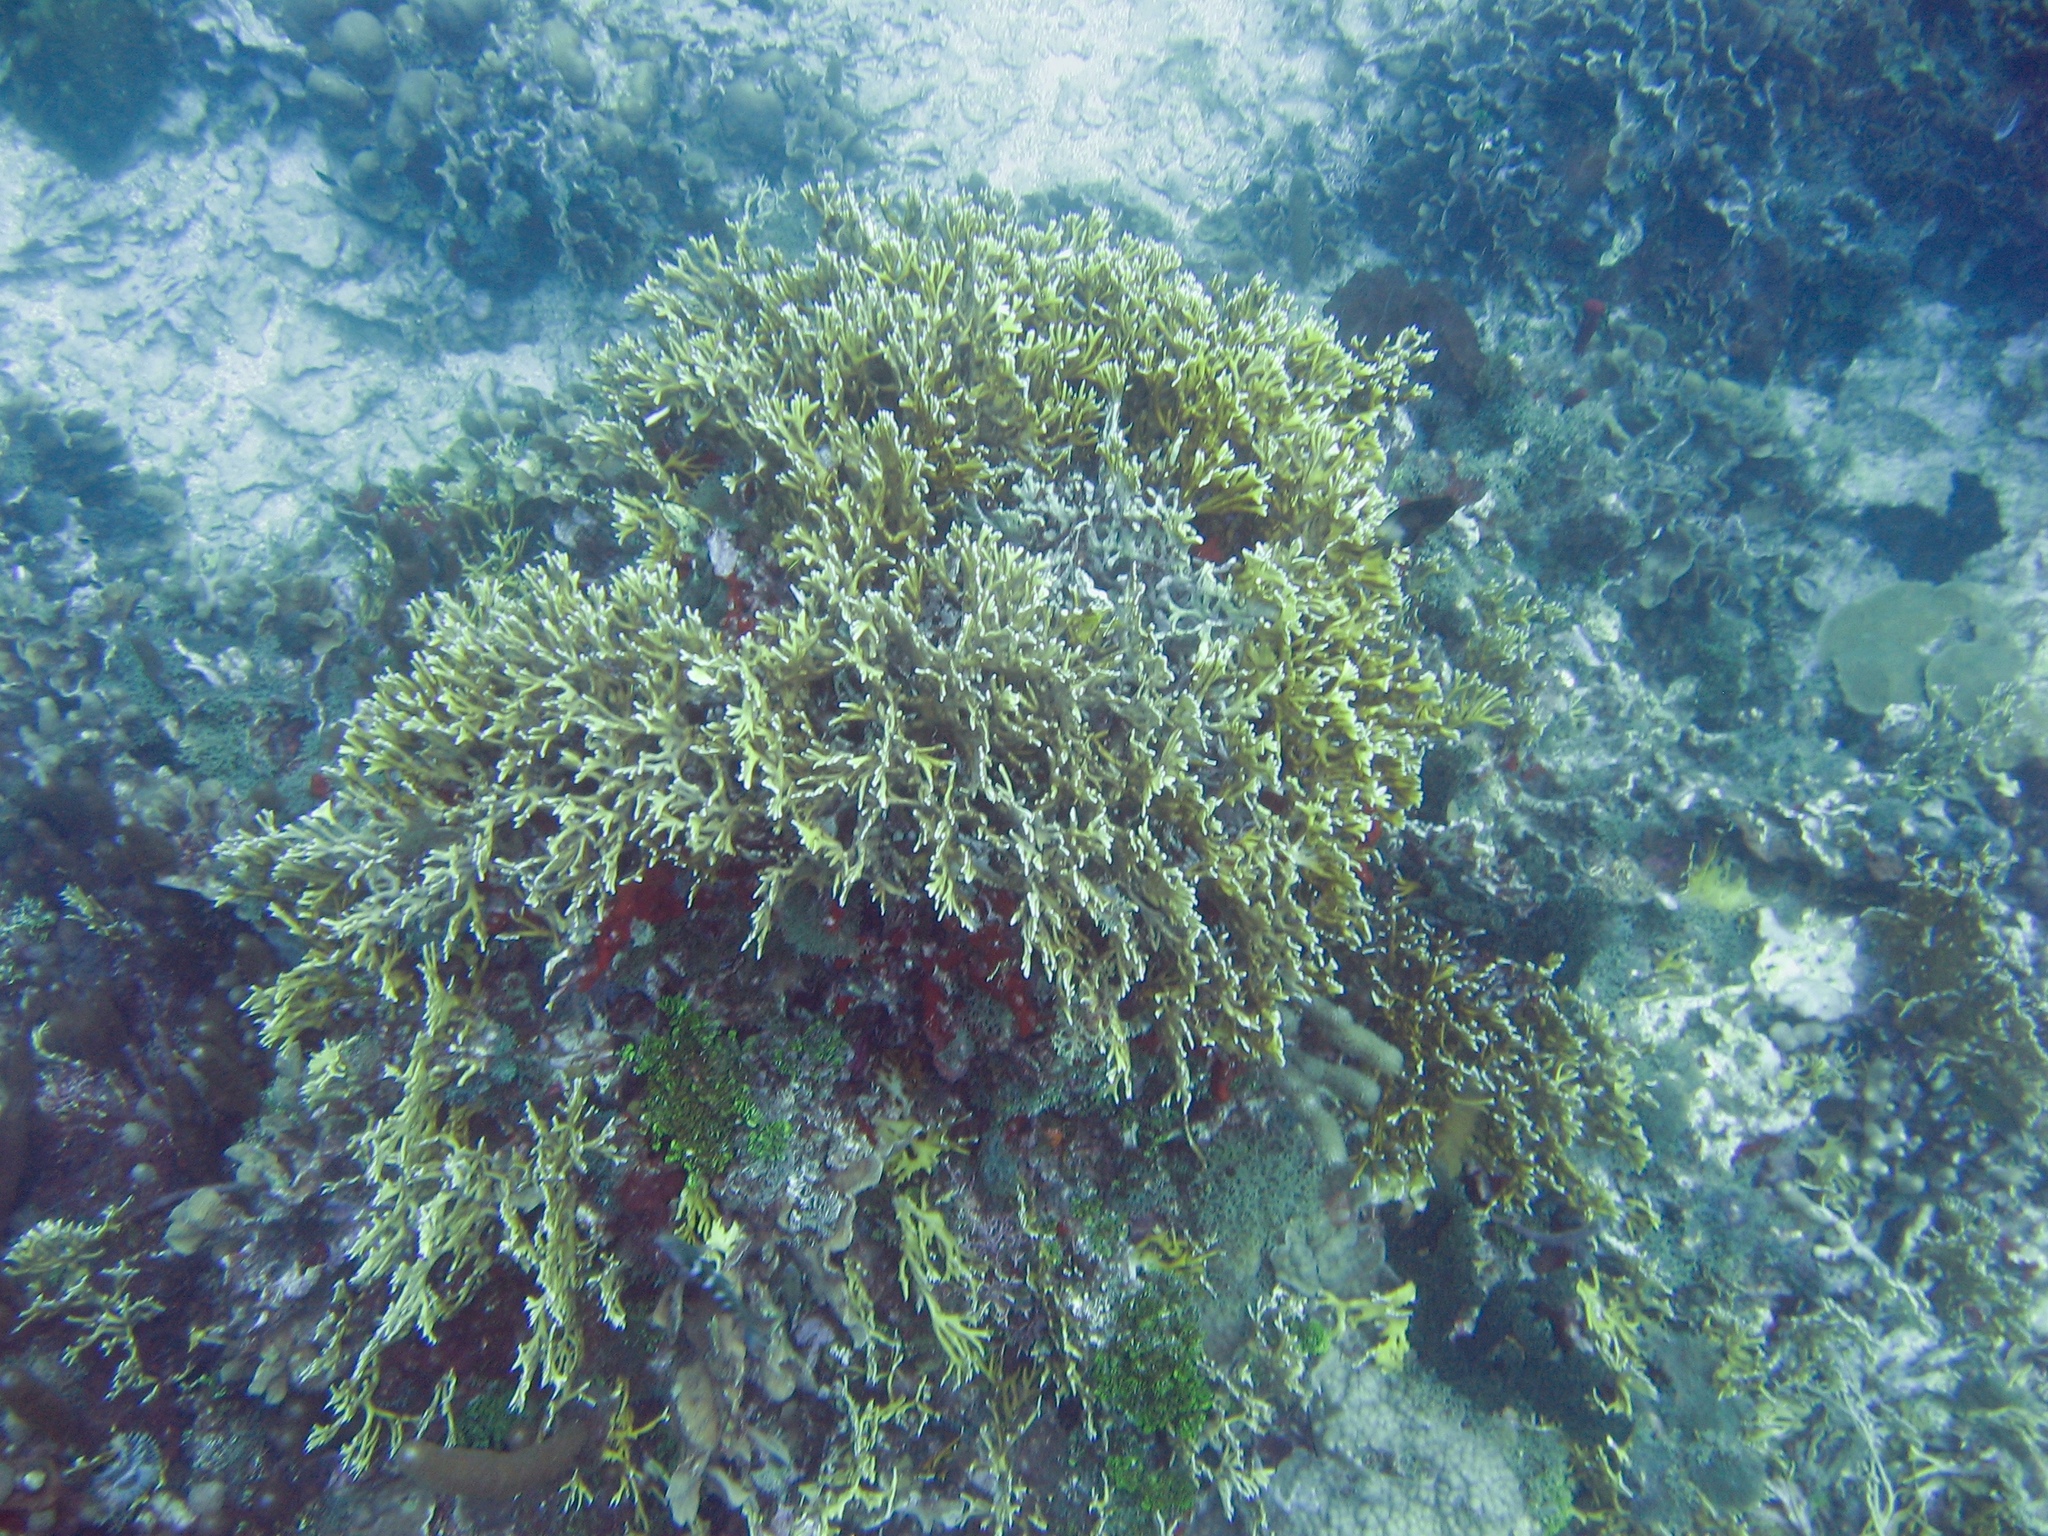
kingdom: Animalia
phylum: Cnidaria
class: Hydrozoa
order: Anthoathecata
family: Milleporidae
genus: Millepora
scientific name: Millepora alcicornis
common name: Branching fire coral
